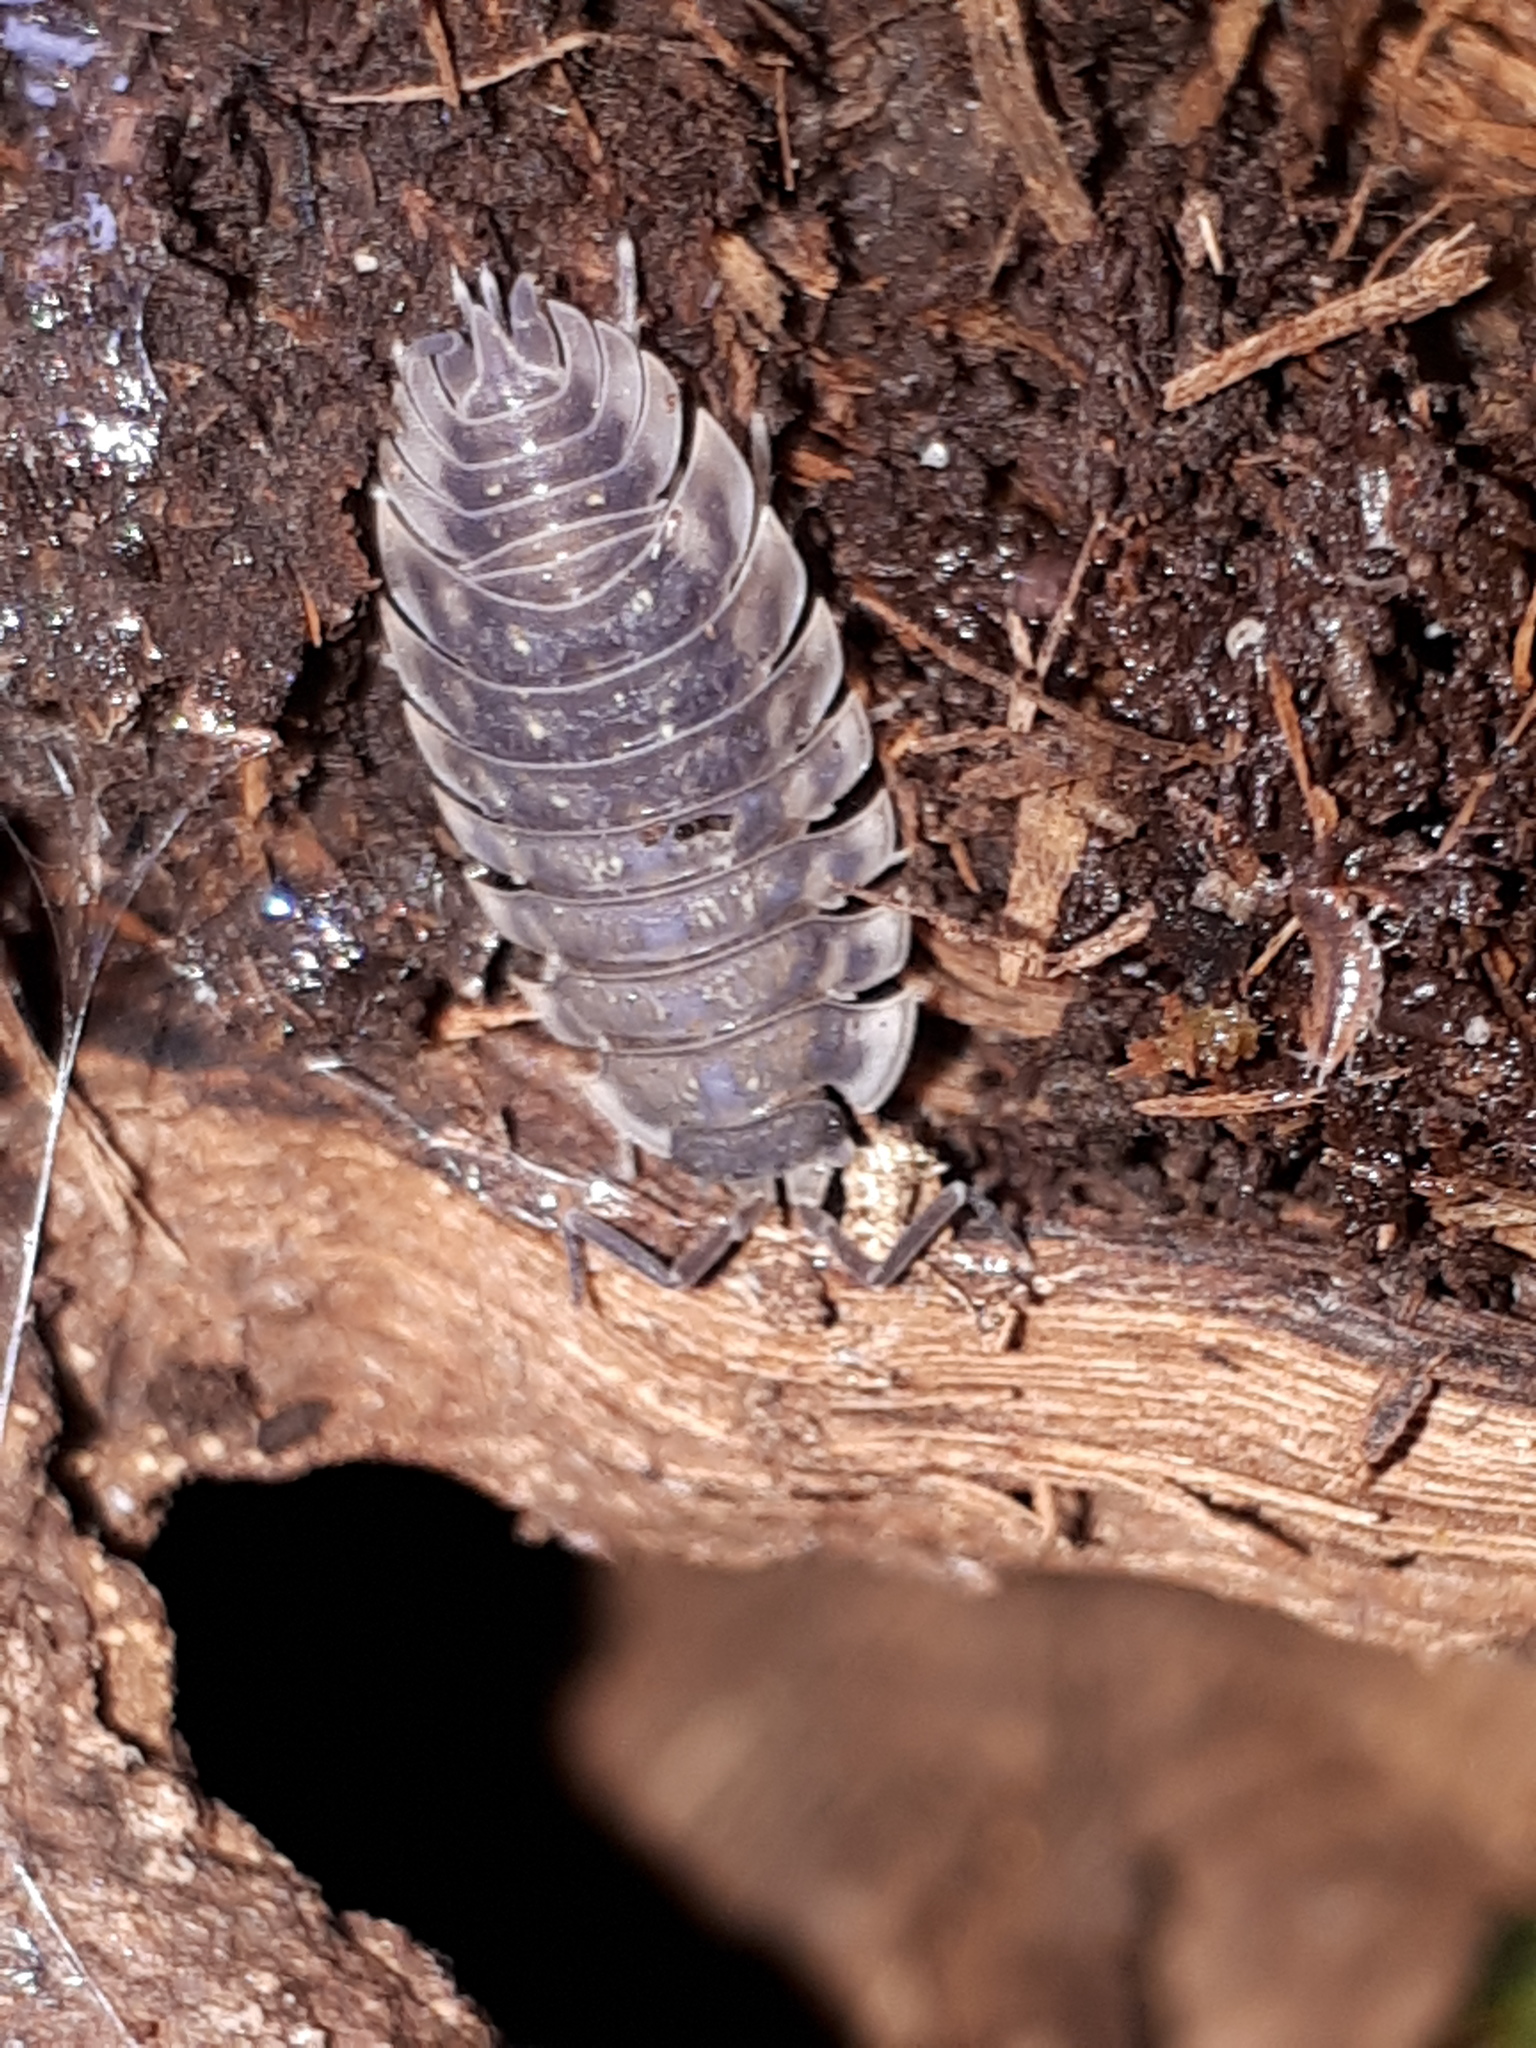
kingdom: Animalia
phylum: Arthropoda
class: Malacostraca
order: Isopoda
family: Oniscidae
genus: Oniscus
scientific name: Oniscus asellus
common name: Common shiny woodlouse
